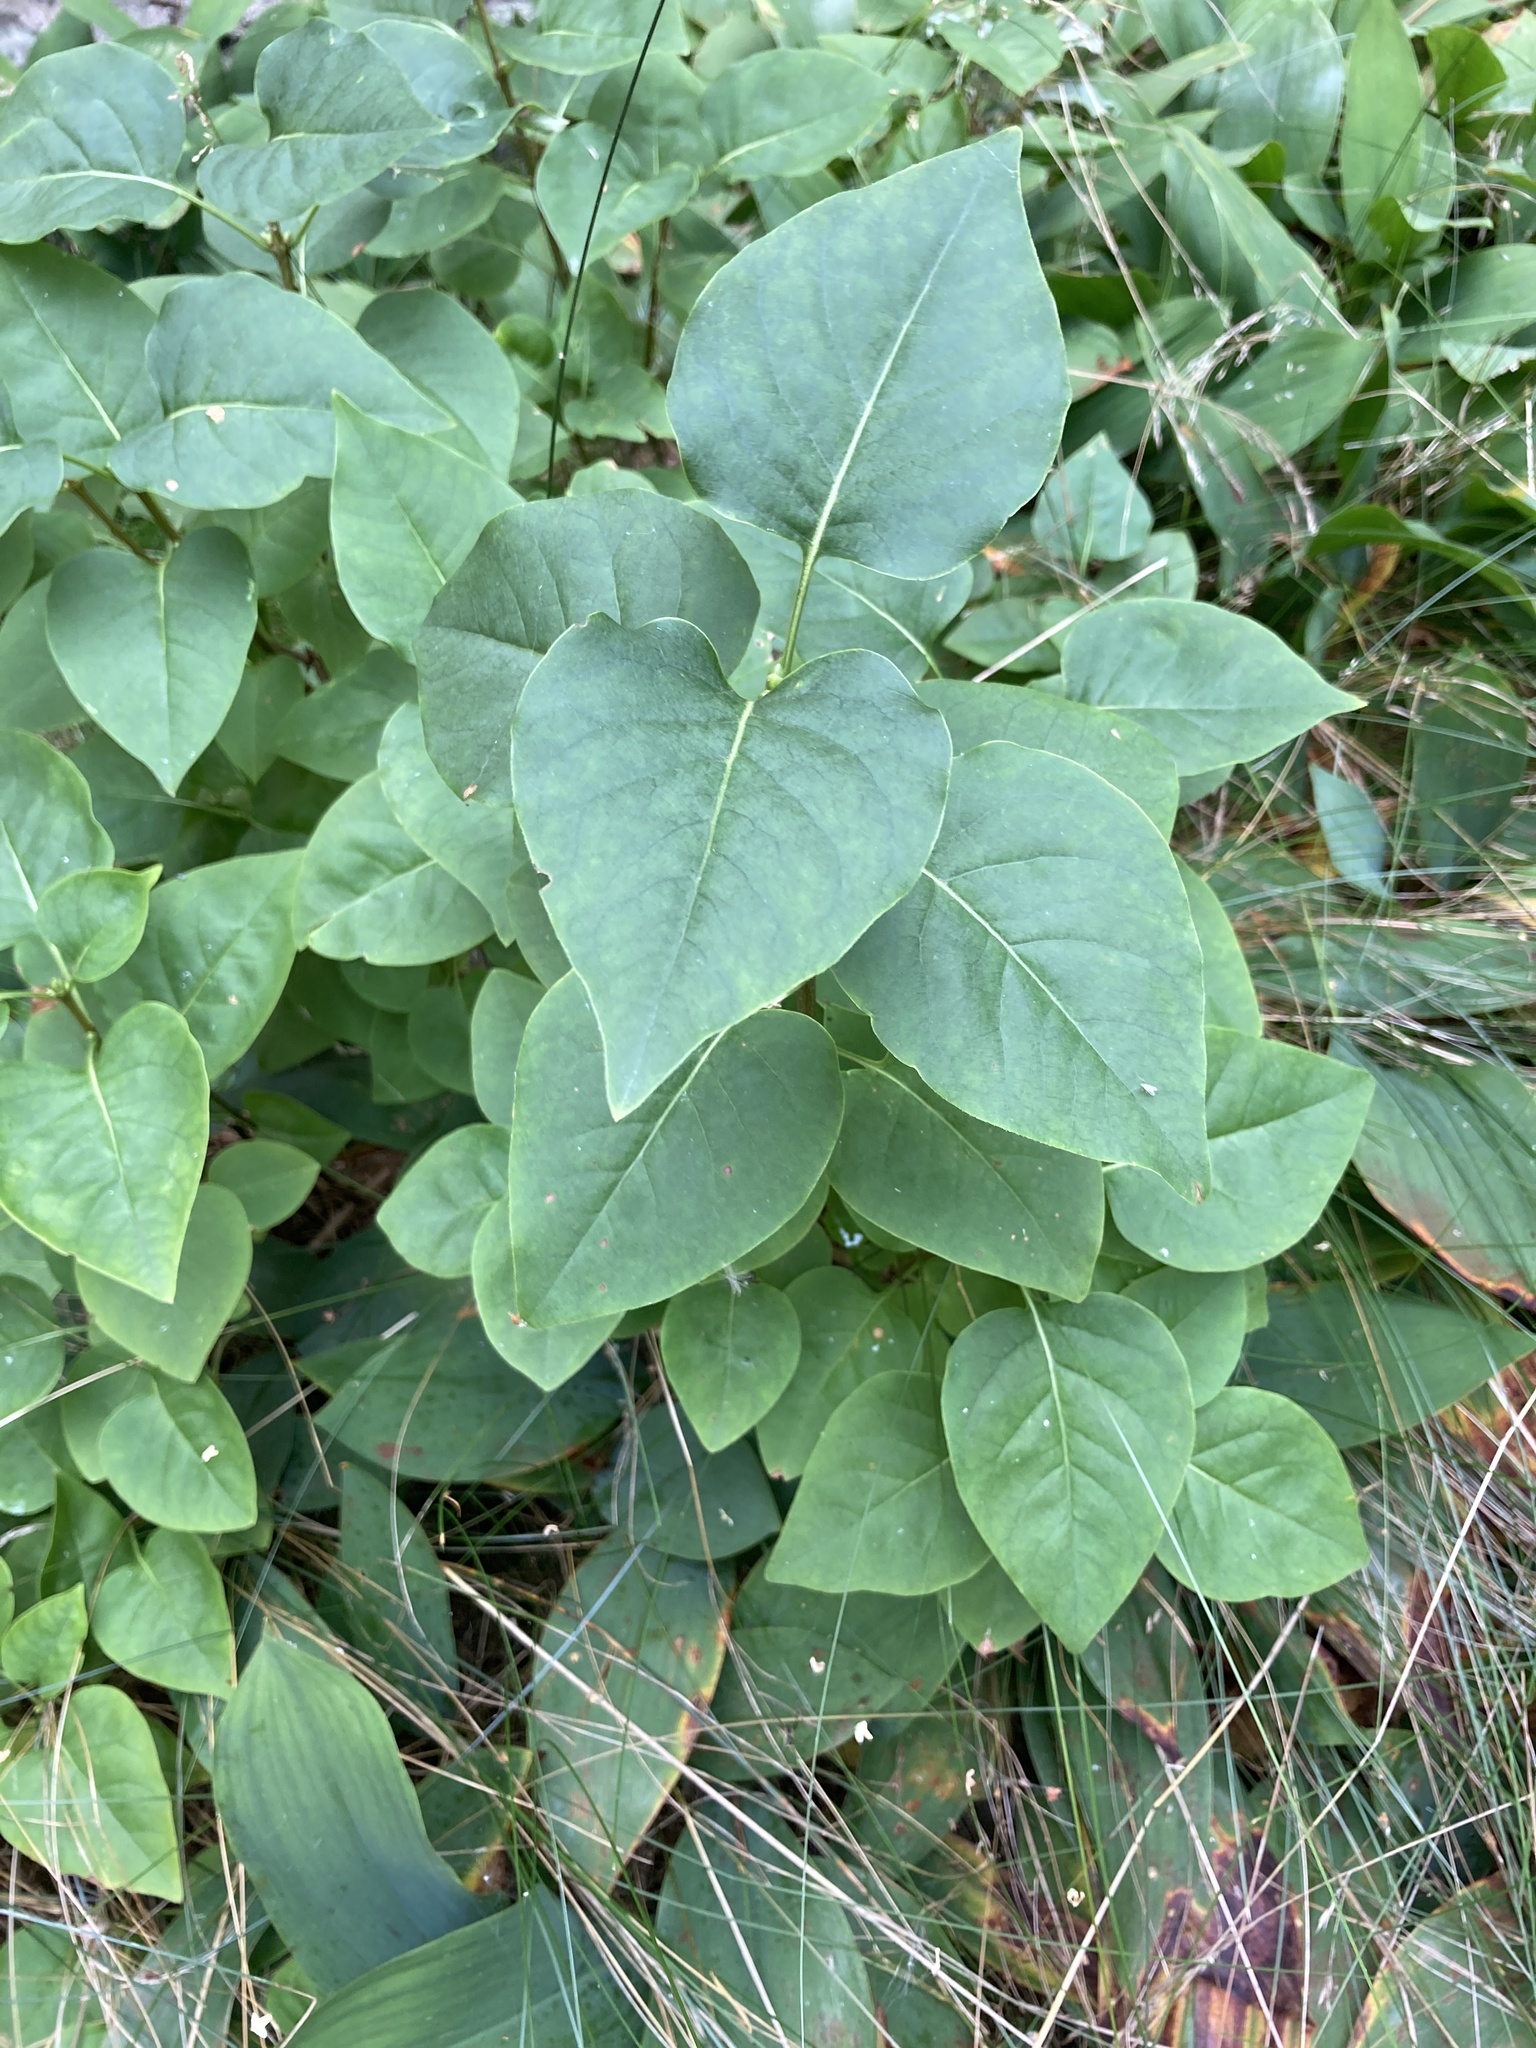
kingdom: Plantae
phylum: Tracheophyta
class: Magnoliopsida
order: Lamiales
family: Oleaceae
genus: Syringa
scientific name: Syringa vulgaris
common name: Common lilac
